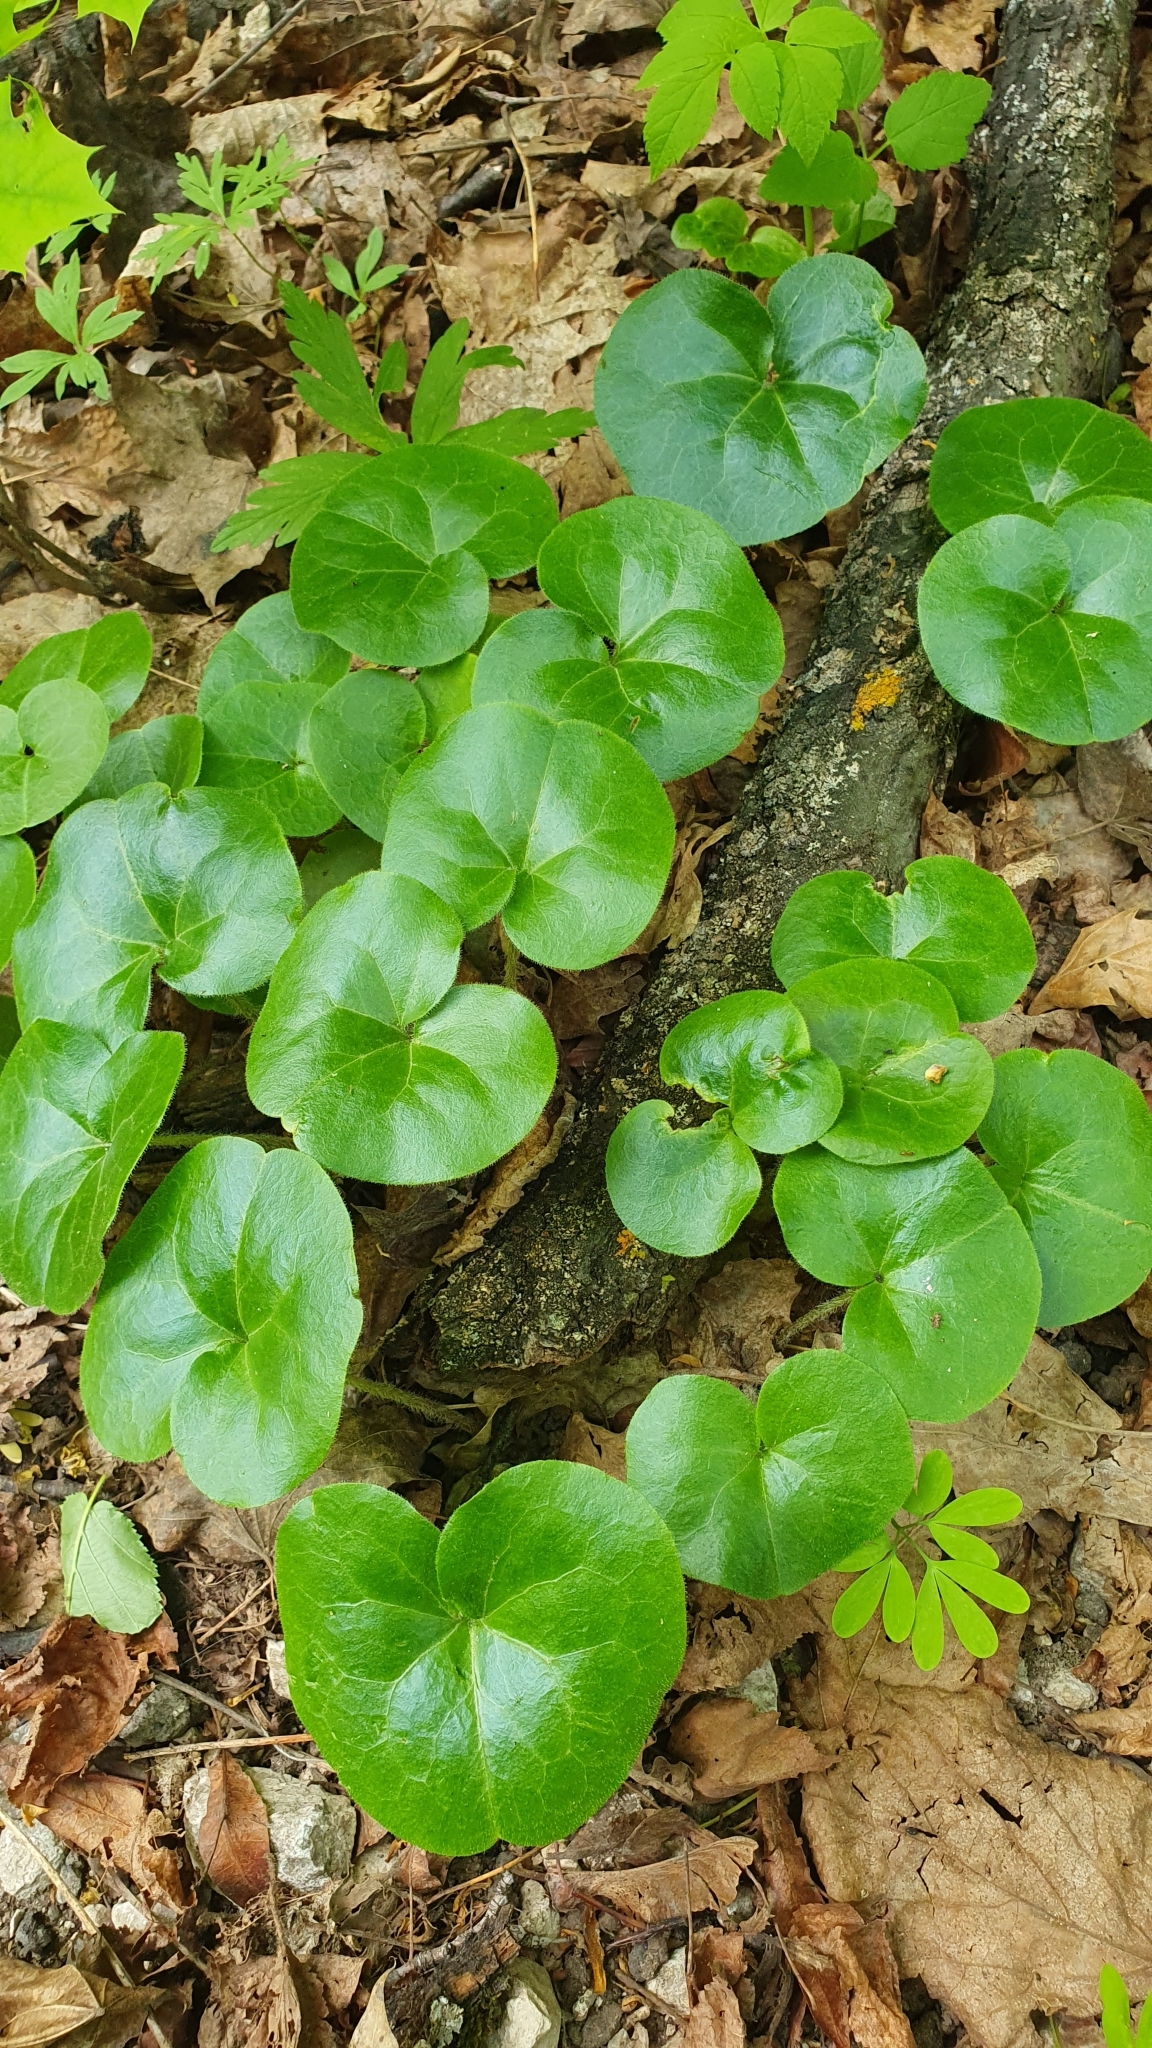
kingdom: Plantae
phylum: Tracheophyta
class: Magnoliopsida
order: Piperales
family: Aristolochiaceae
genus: Asarum
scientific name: Asarum europaeum
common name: Asarabacca
